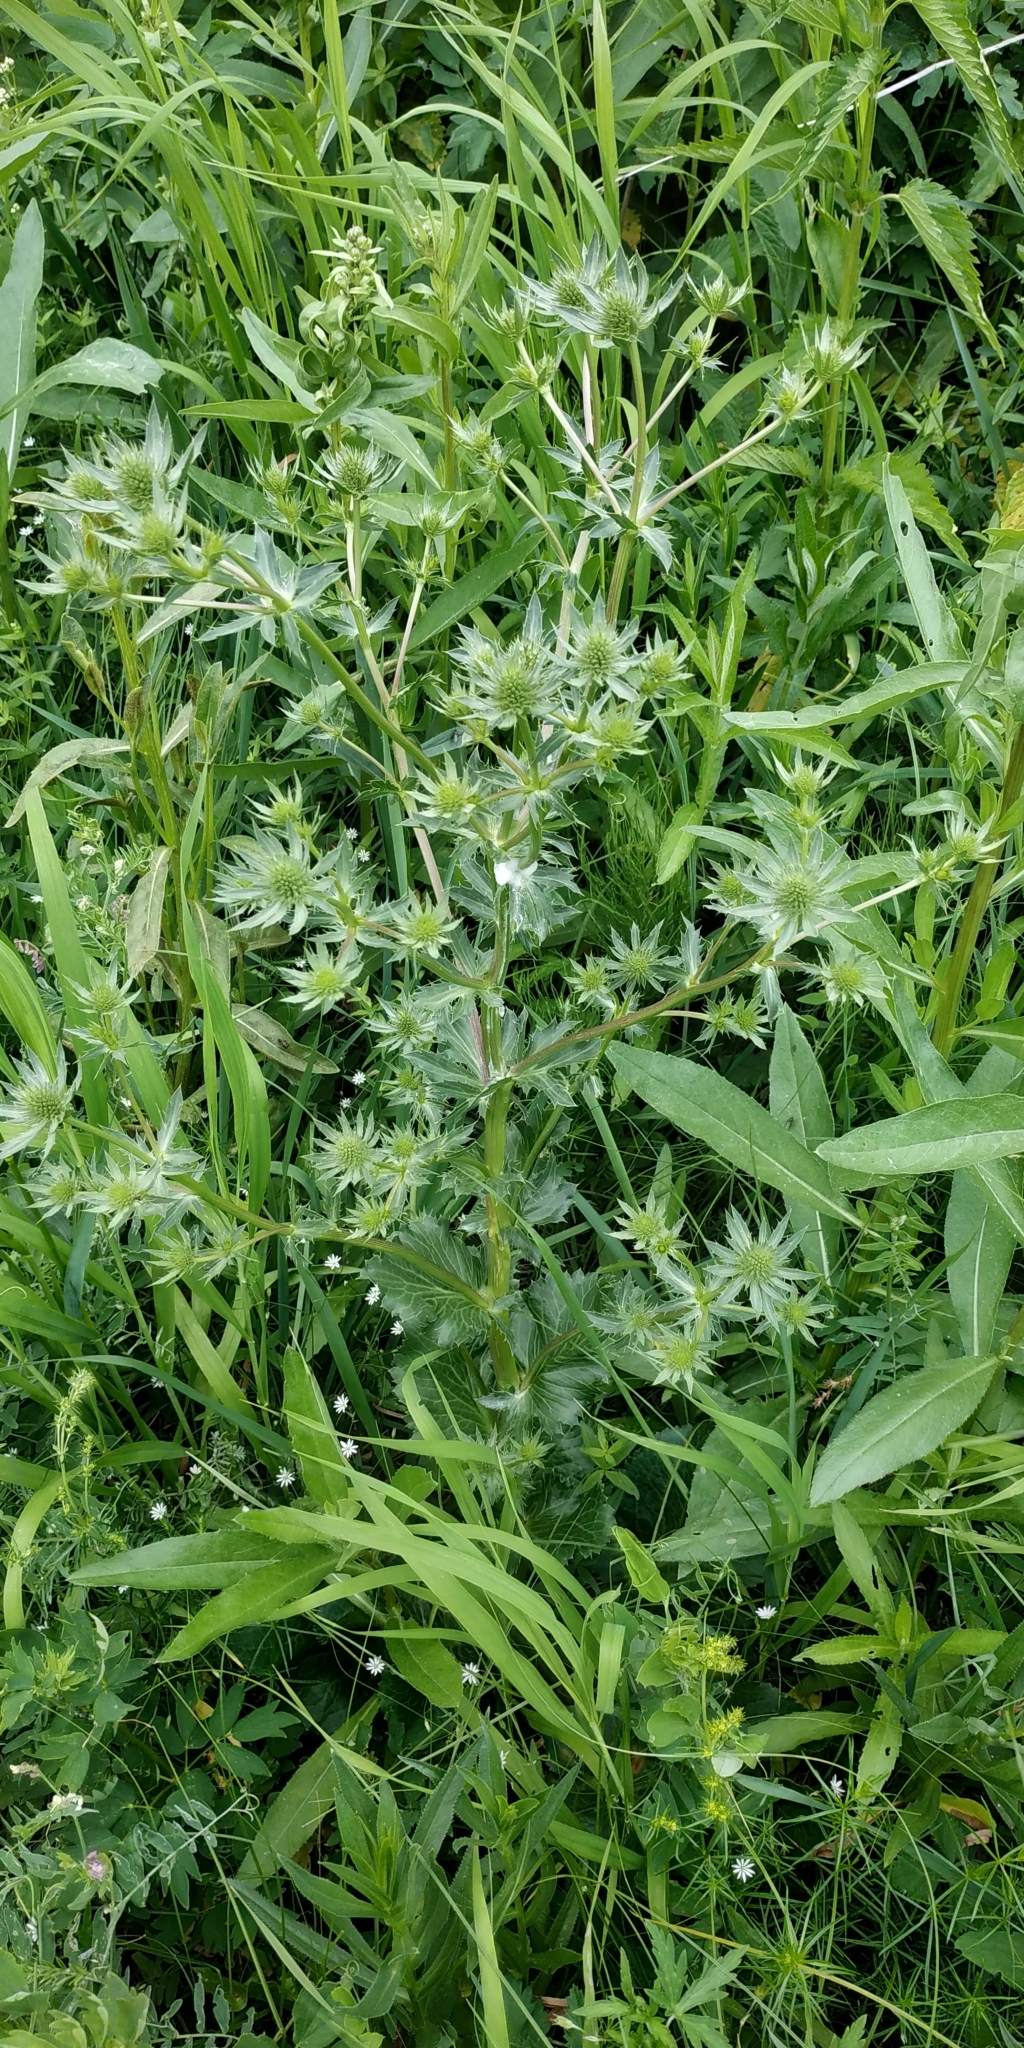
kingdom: Plantae
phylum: Tracheophyta
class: Magnoliopsida
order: Apiales
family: Apiaceae
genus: Eryngium
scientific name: Eryngium planum
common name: Blue eryngo
